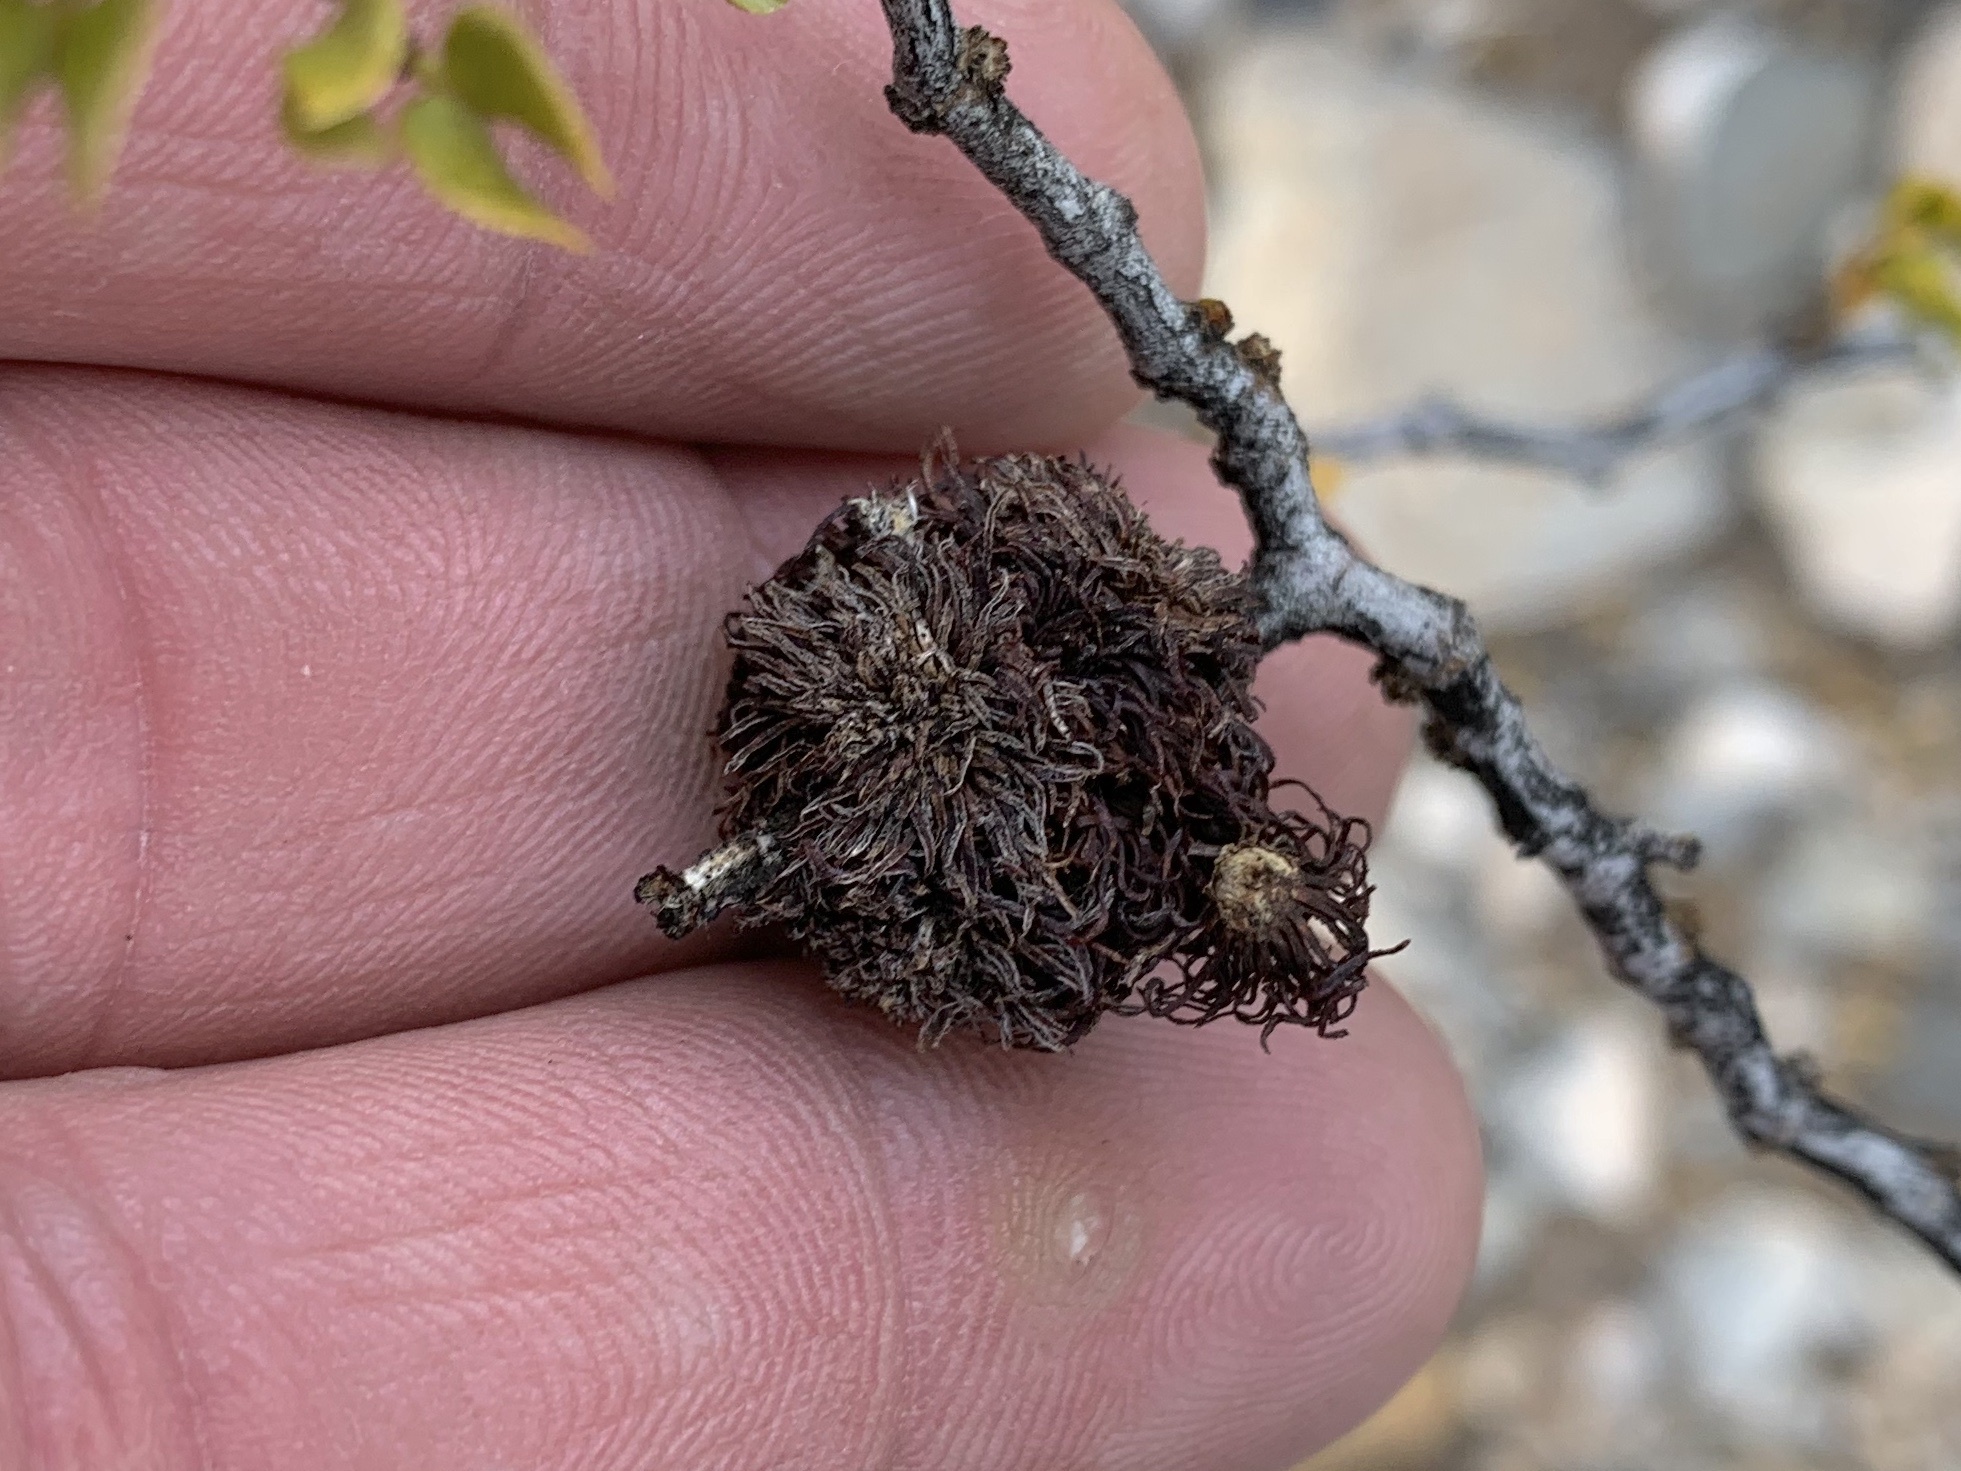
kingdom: Animalia
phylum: Arthropoda
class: Insecta
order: Diptera
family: Cecidomyiidae
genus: Asphondylia
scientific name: Asphondylia auripila
